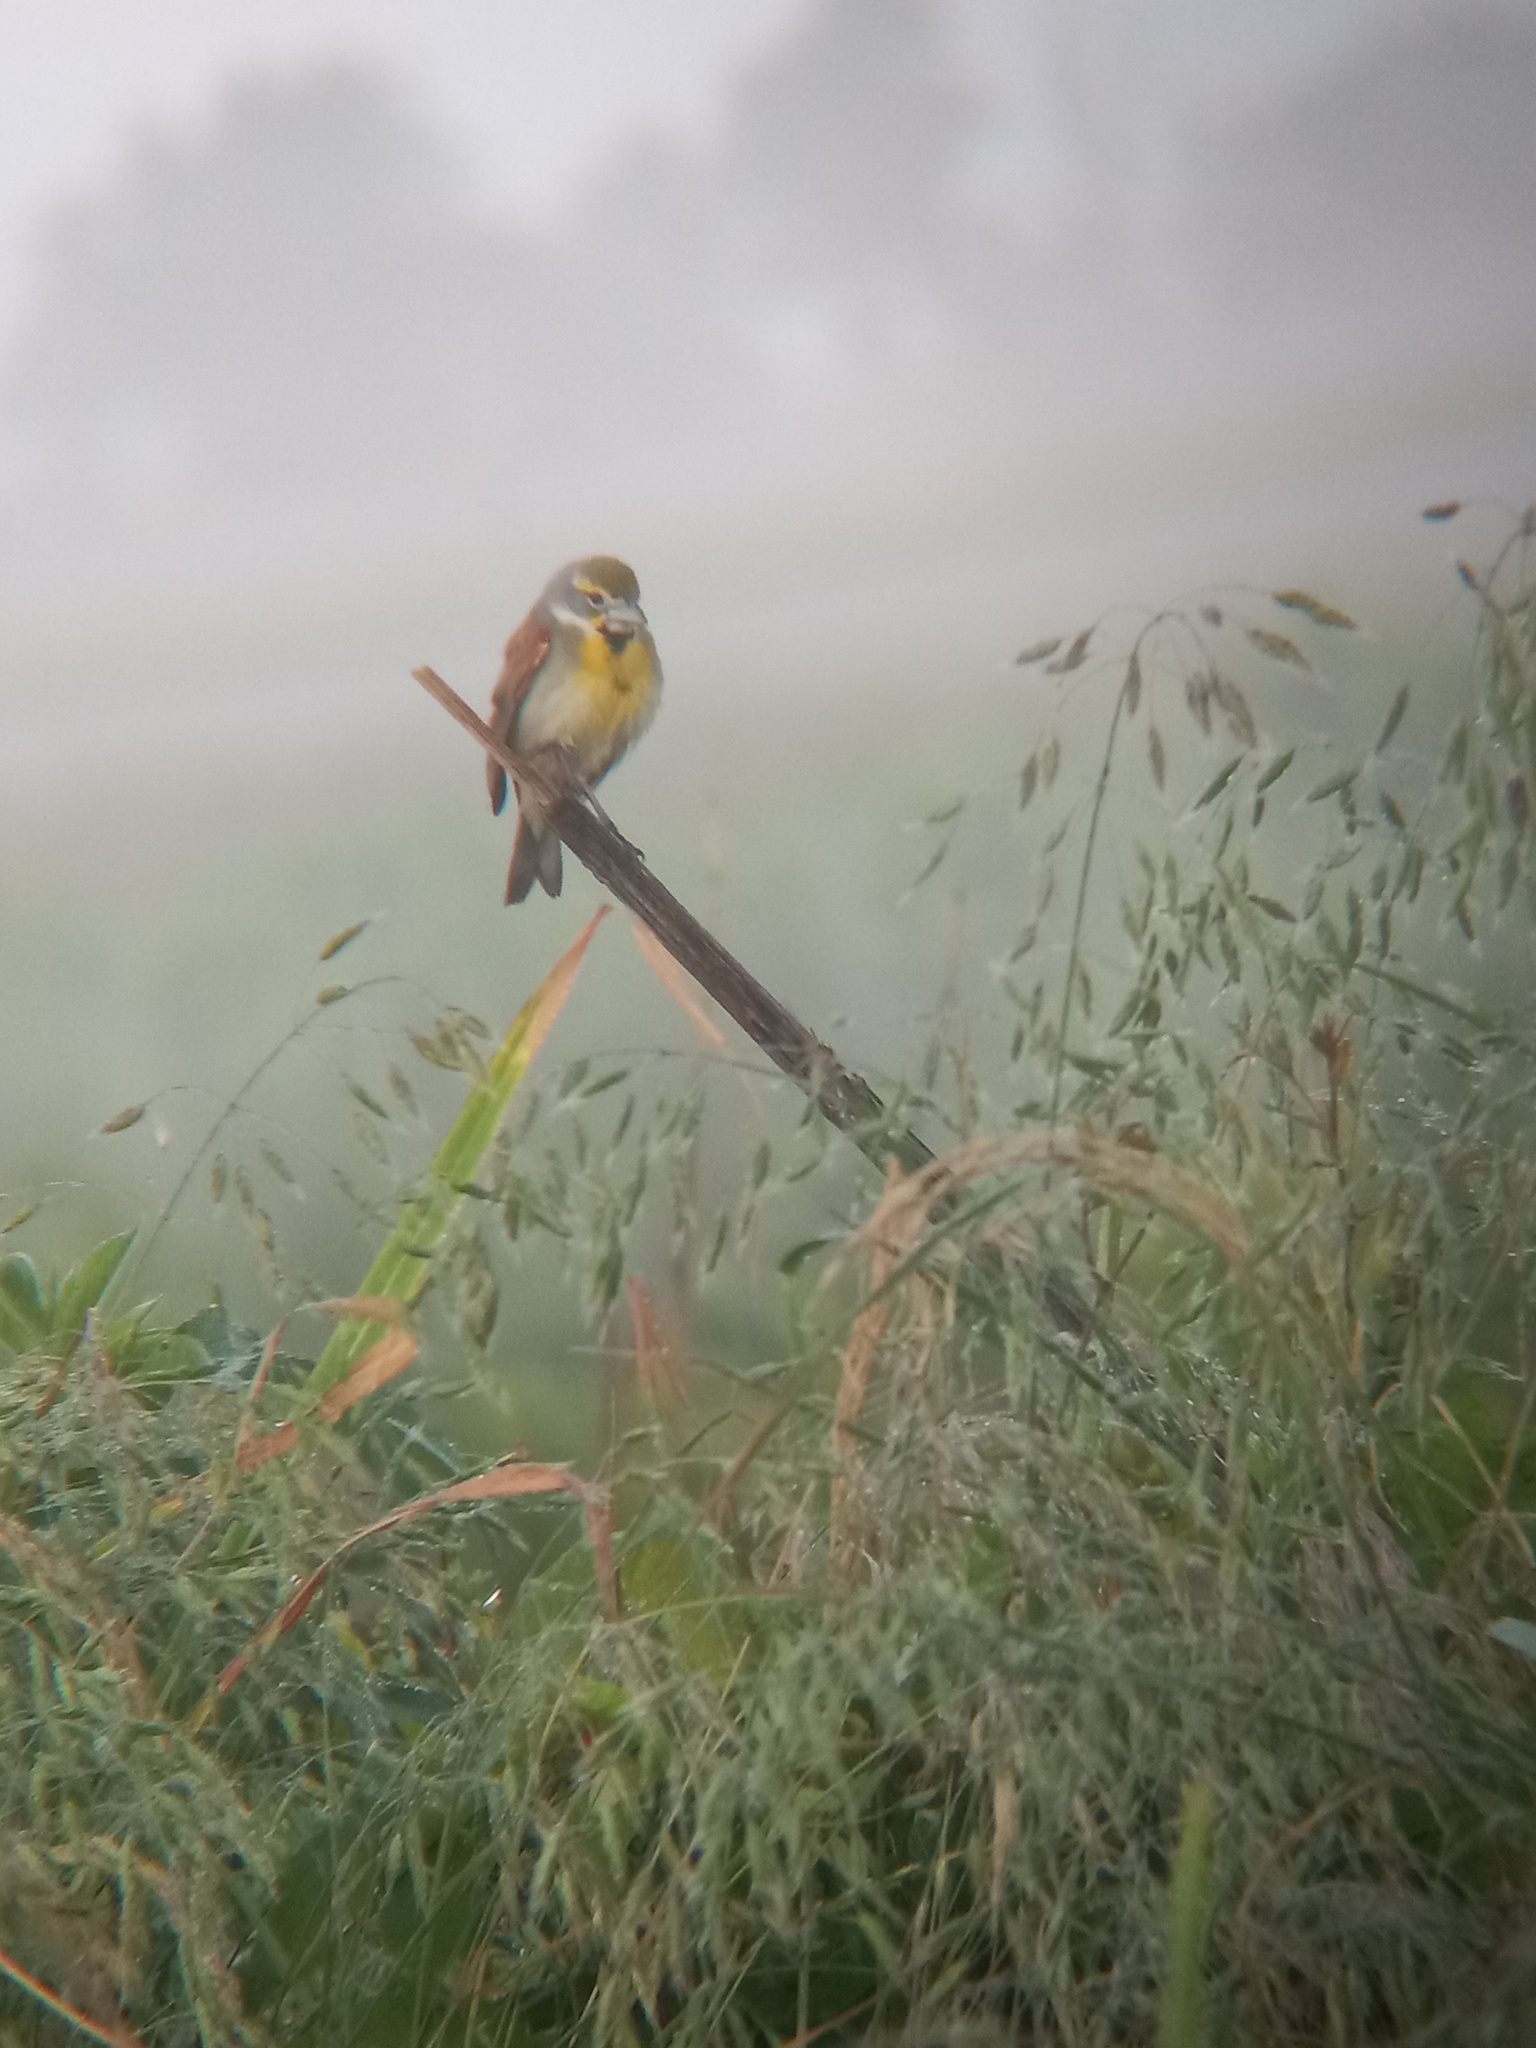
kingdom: Animalia
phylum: Chordata
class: Aves
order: Passeriformes
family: Cardinalidae
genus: Spiza
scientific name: Spiza americana
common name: Dickcissel
